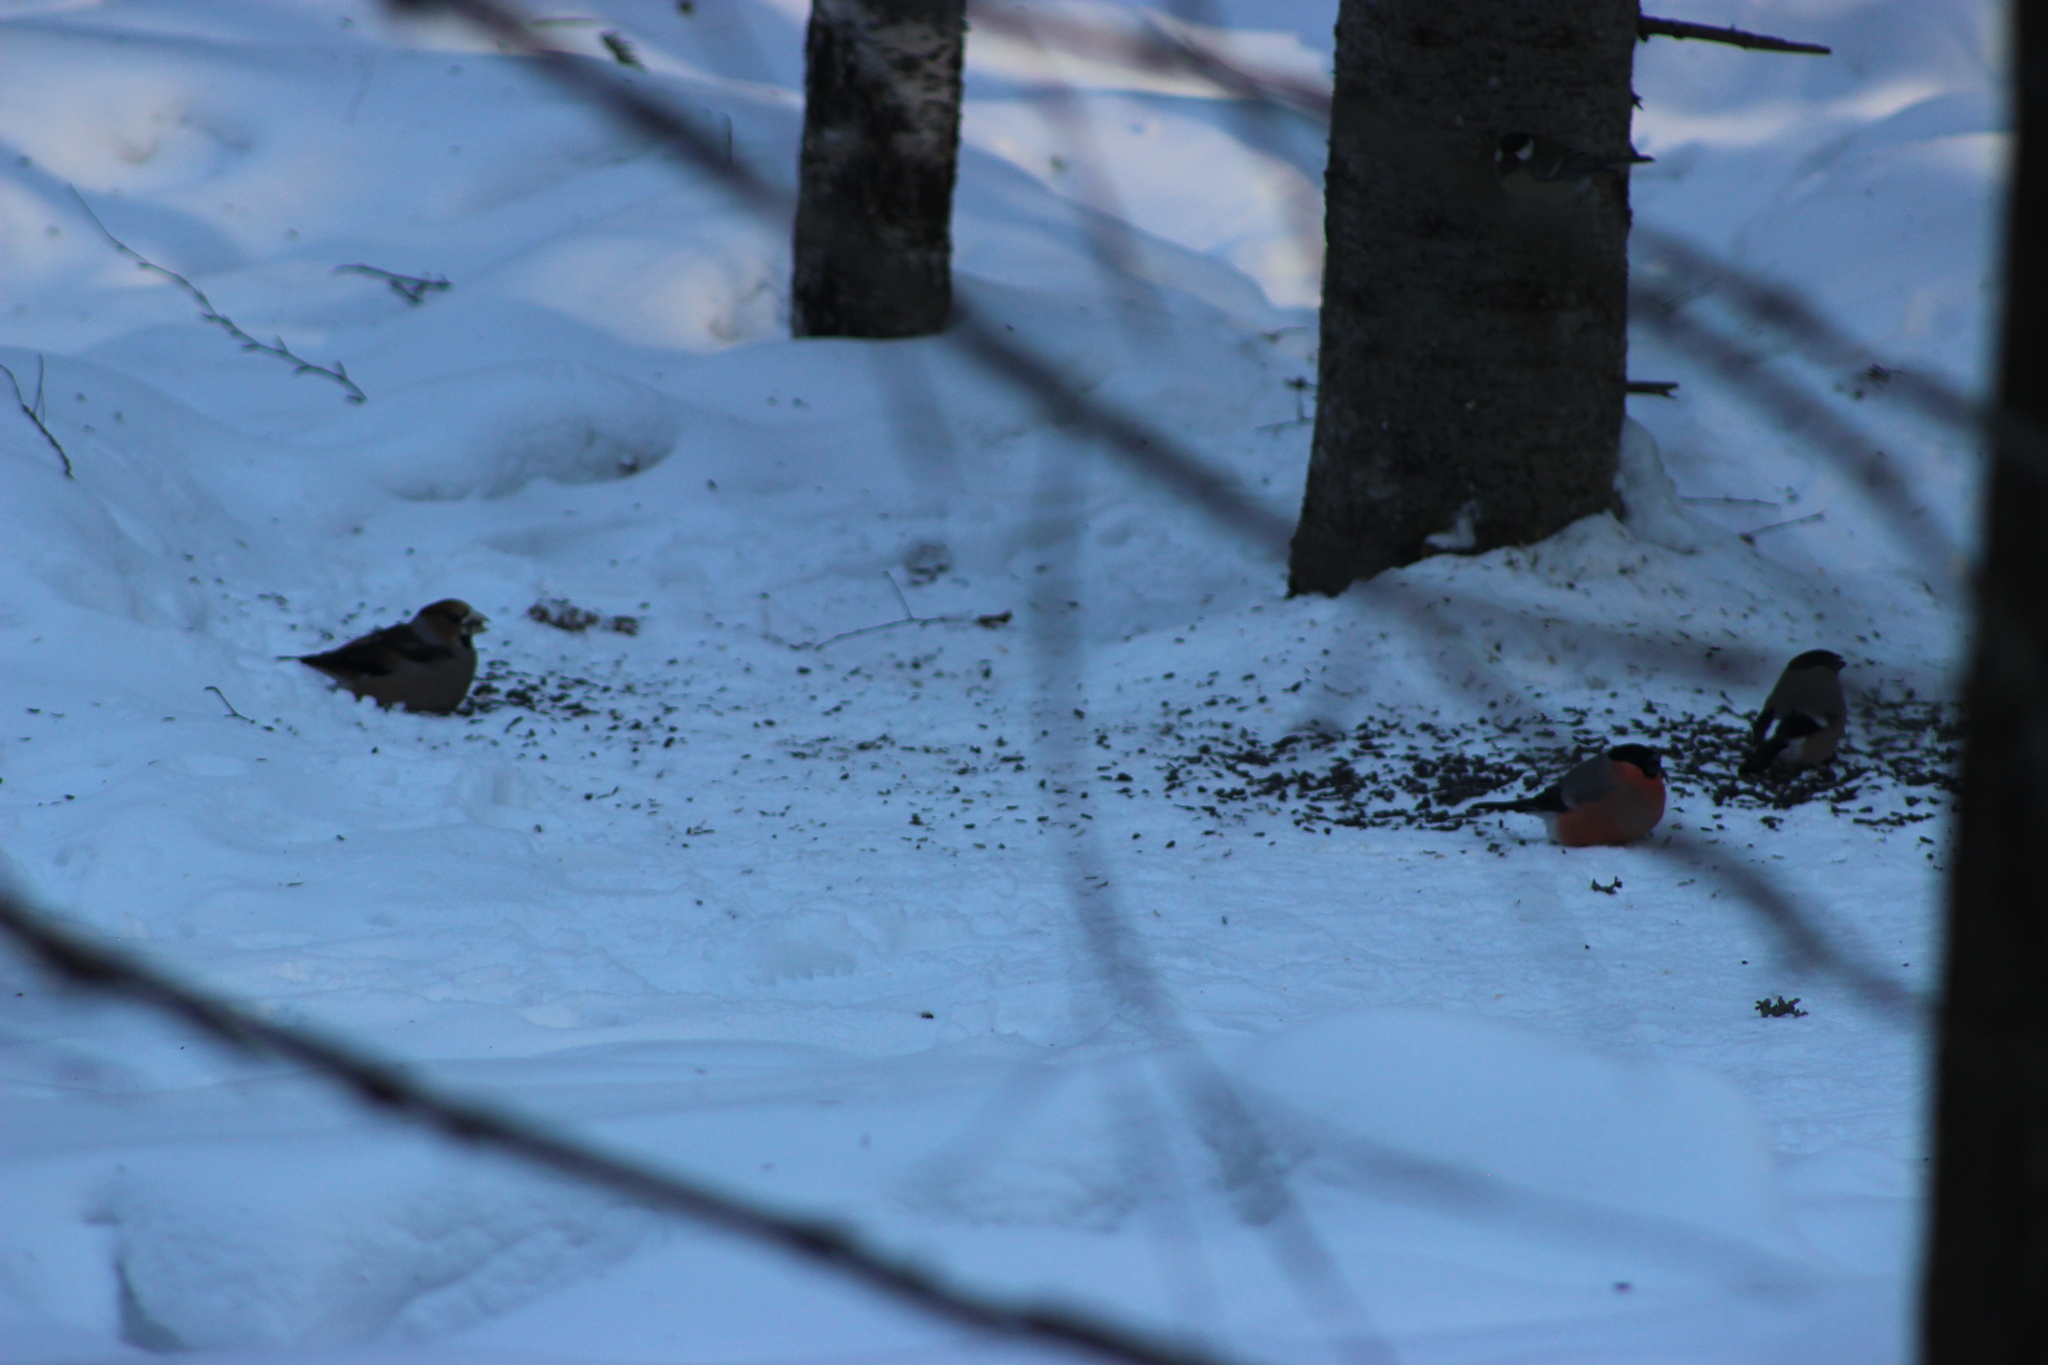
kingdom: Animalia
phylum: Chordata
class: Aves
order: Passeriformes
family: Fringillidae
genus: Coccothraustes
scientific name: Coccothraustes coccothraustes
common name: Hawfinch
